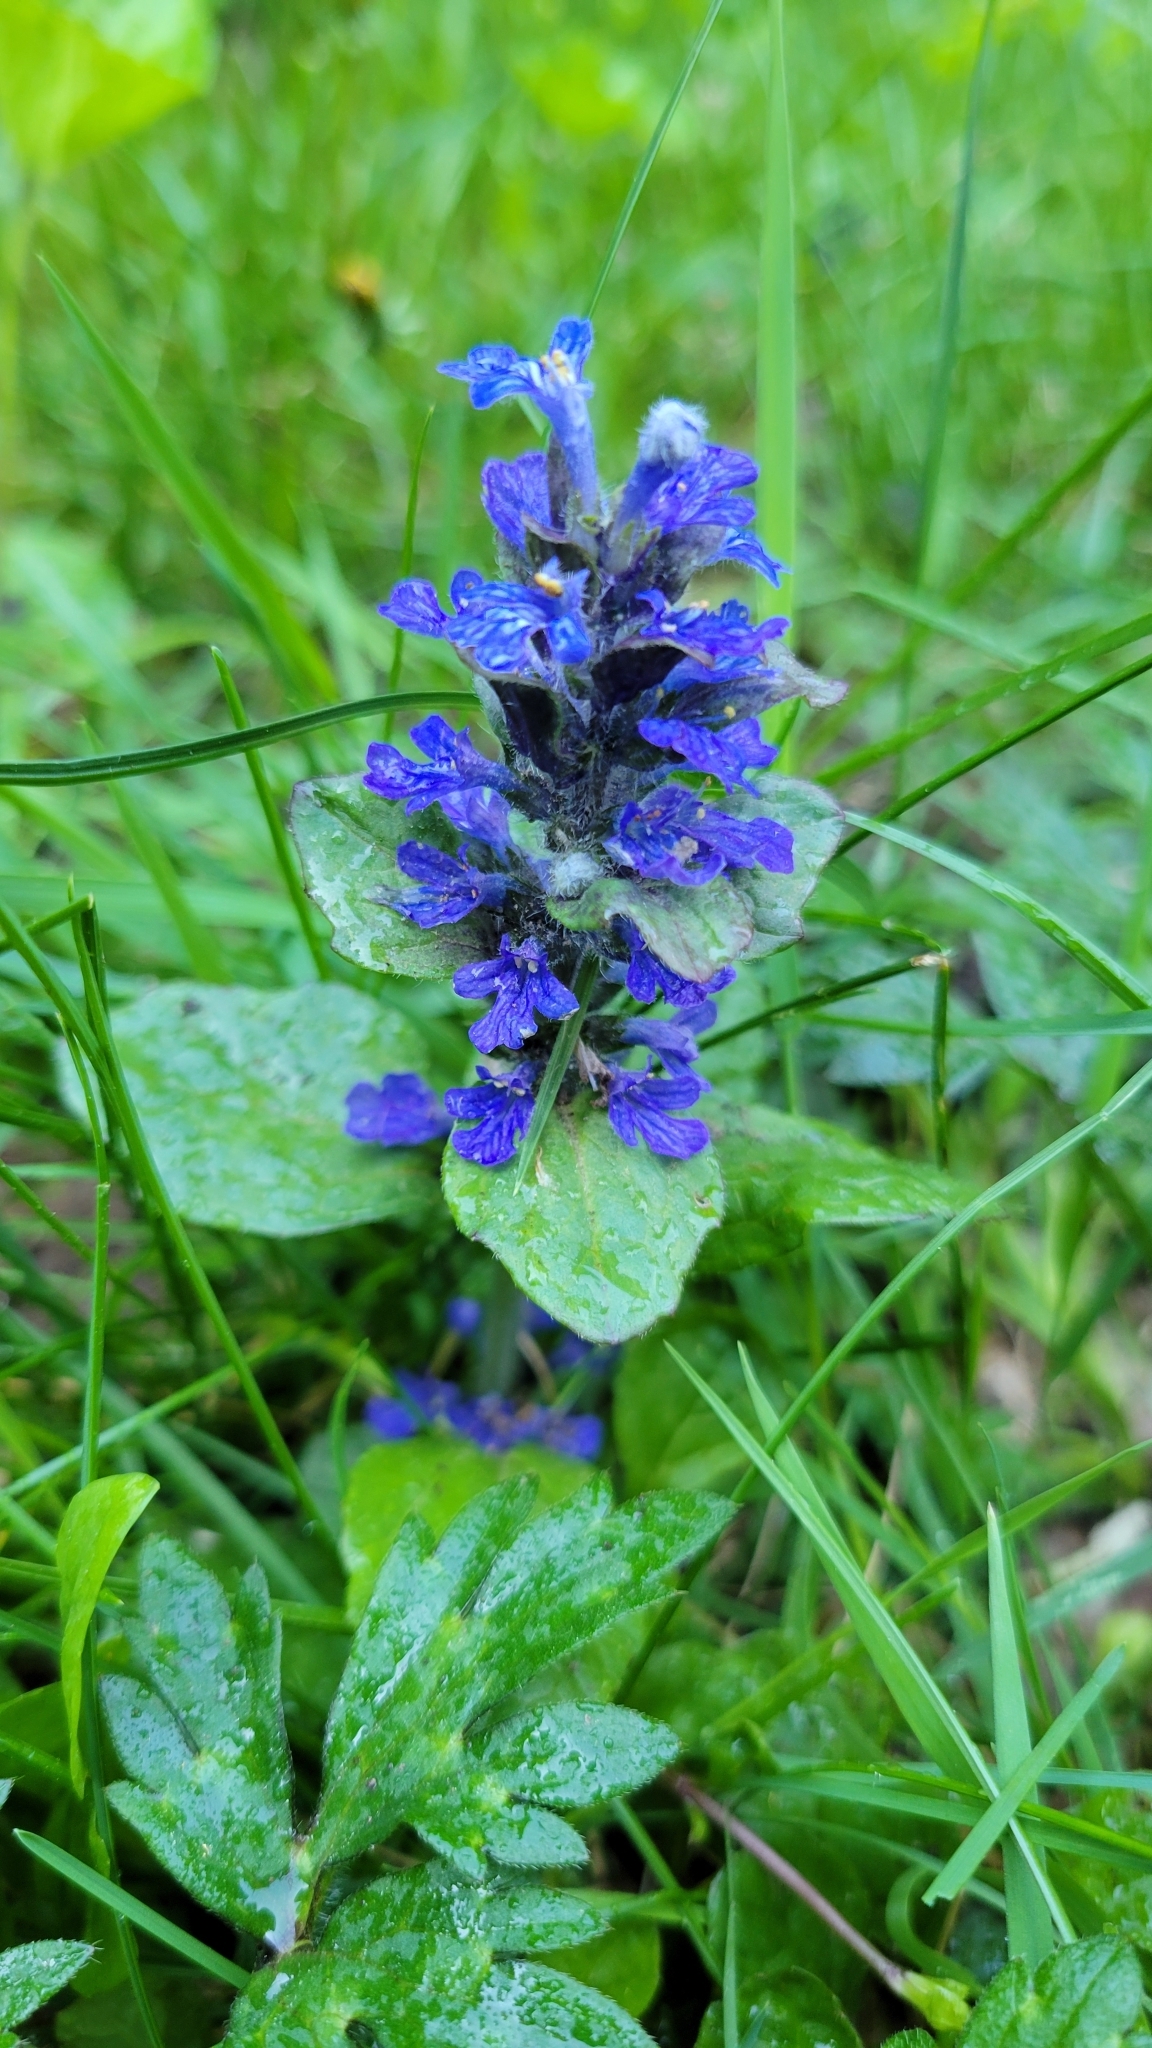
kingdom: Plantae
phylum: Tracheophyta
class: Magnoliopsida
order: Lamiales
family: Lamiaceae
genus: Ajuga
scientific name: Ajuga reptans
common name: Bugle
